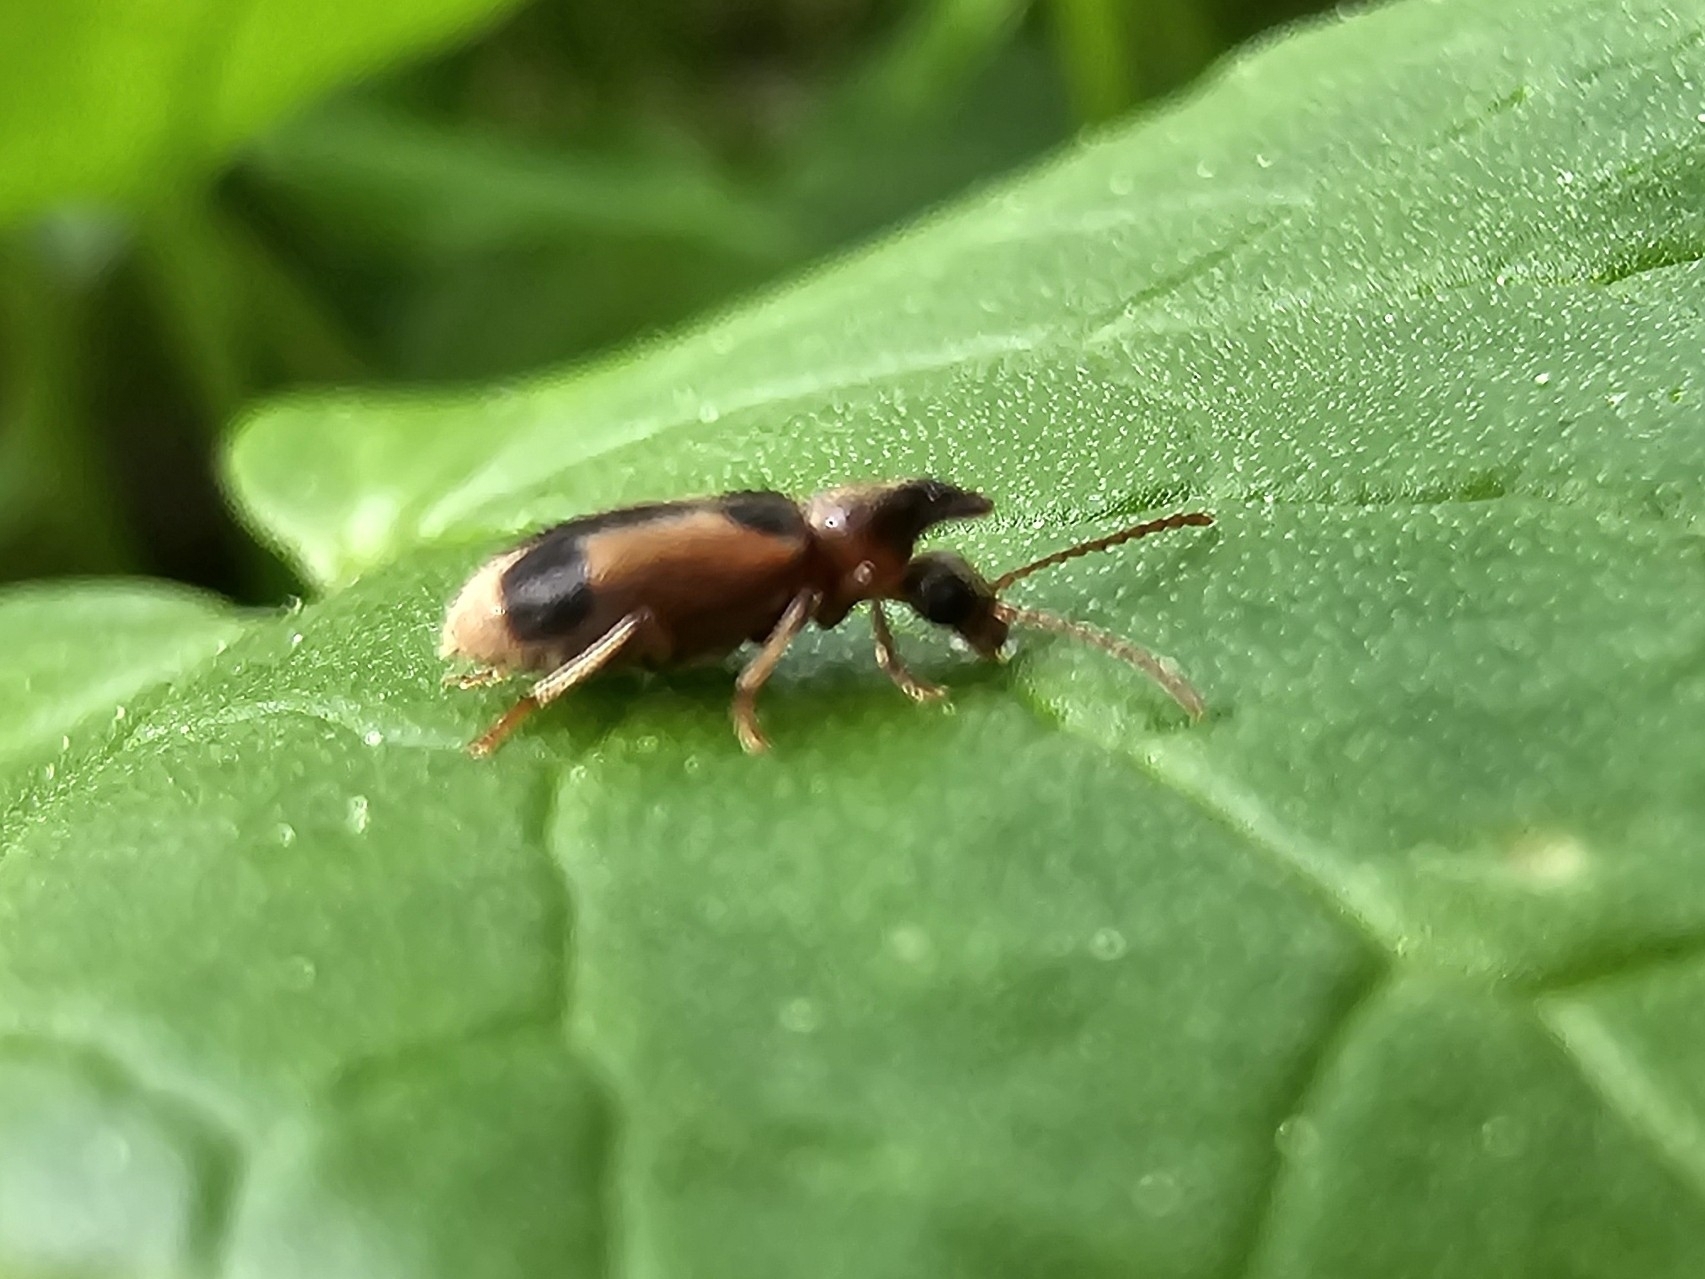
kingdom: Animalia
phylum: Arthropoda
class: Insecta
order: Coleoptera
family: Anthicidae
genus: Notoxus
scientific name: Notoxus monoceros
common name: Monoceros beetle
